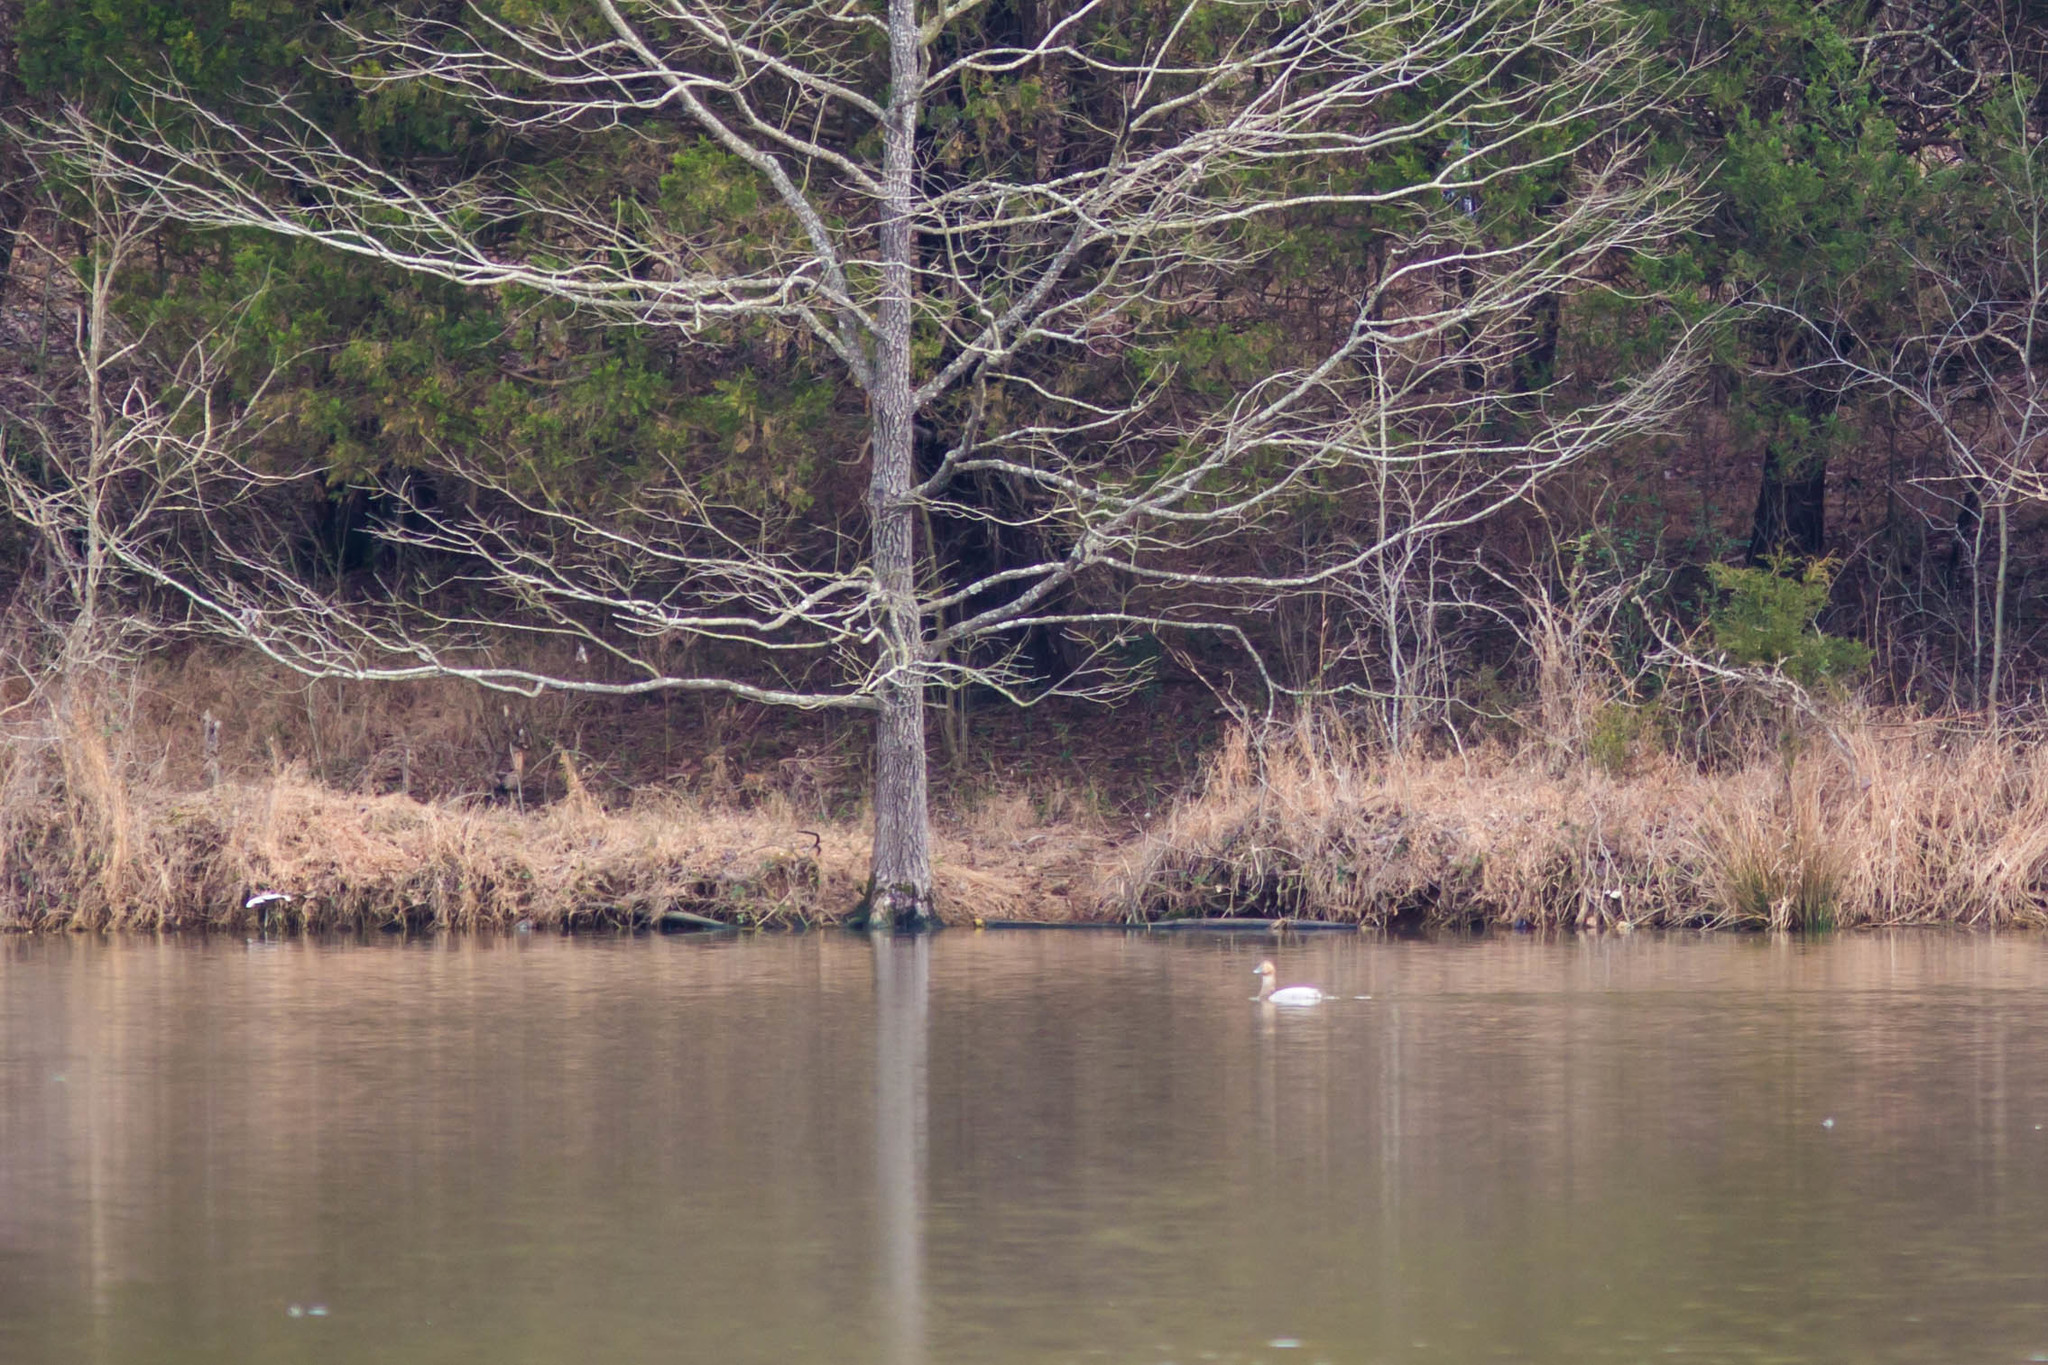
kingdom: Animalia
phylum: Chordata
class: Aves
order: Anseriformes
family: Anatidae
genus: Aythya
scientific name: Aythya valisineria
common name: Canvasback
